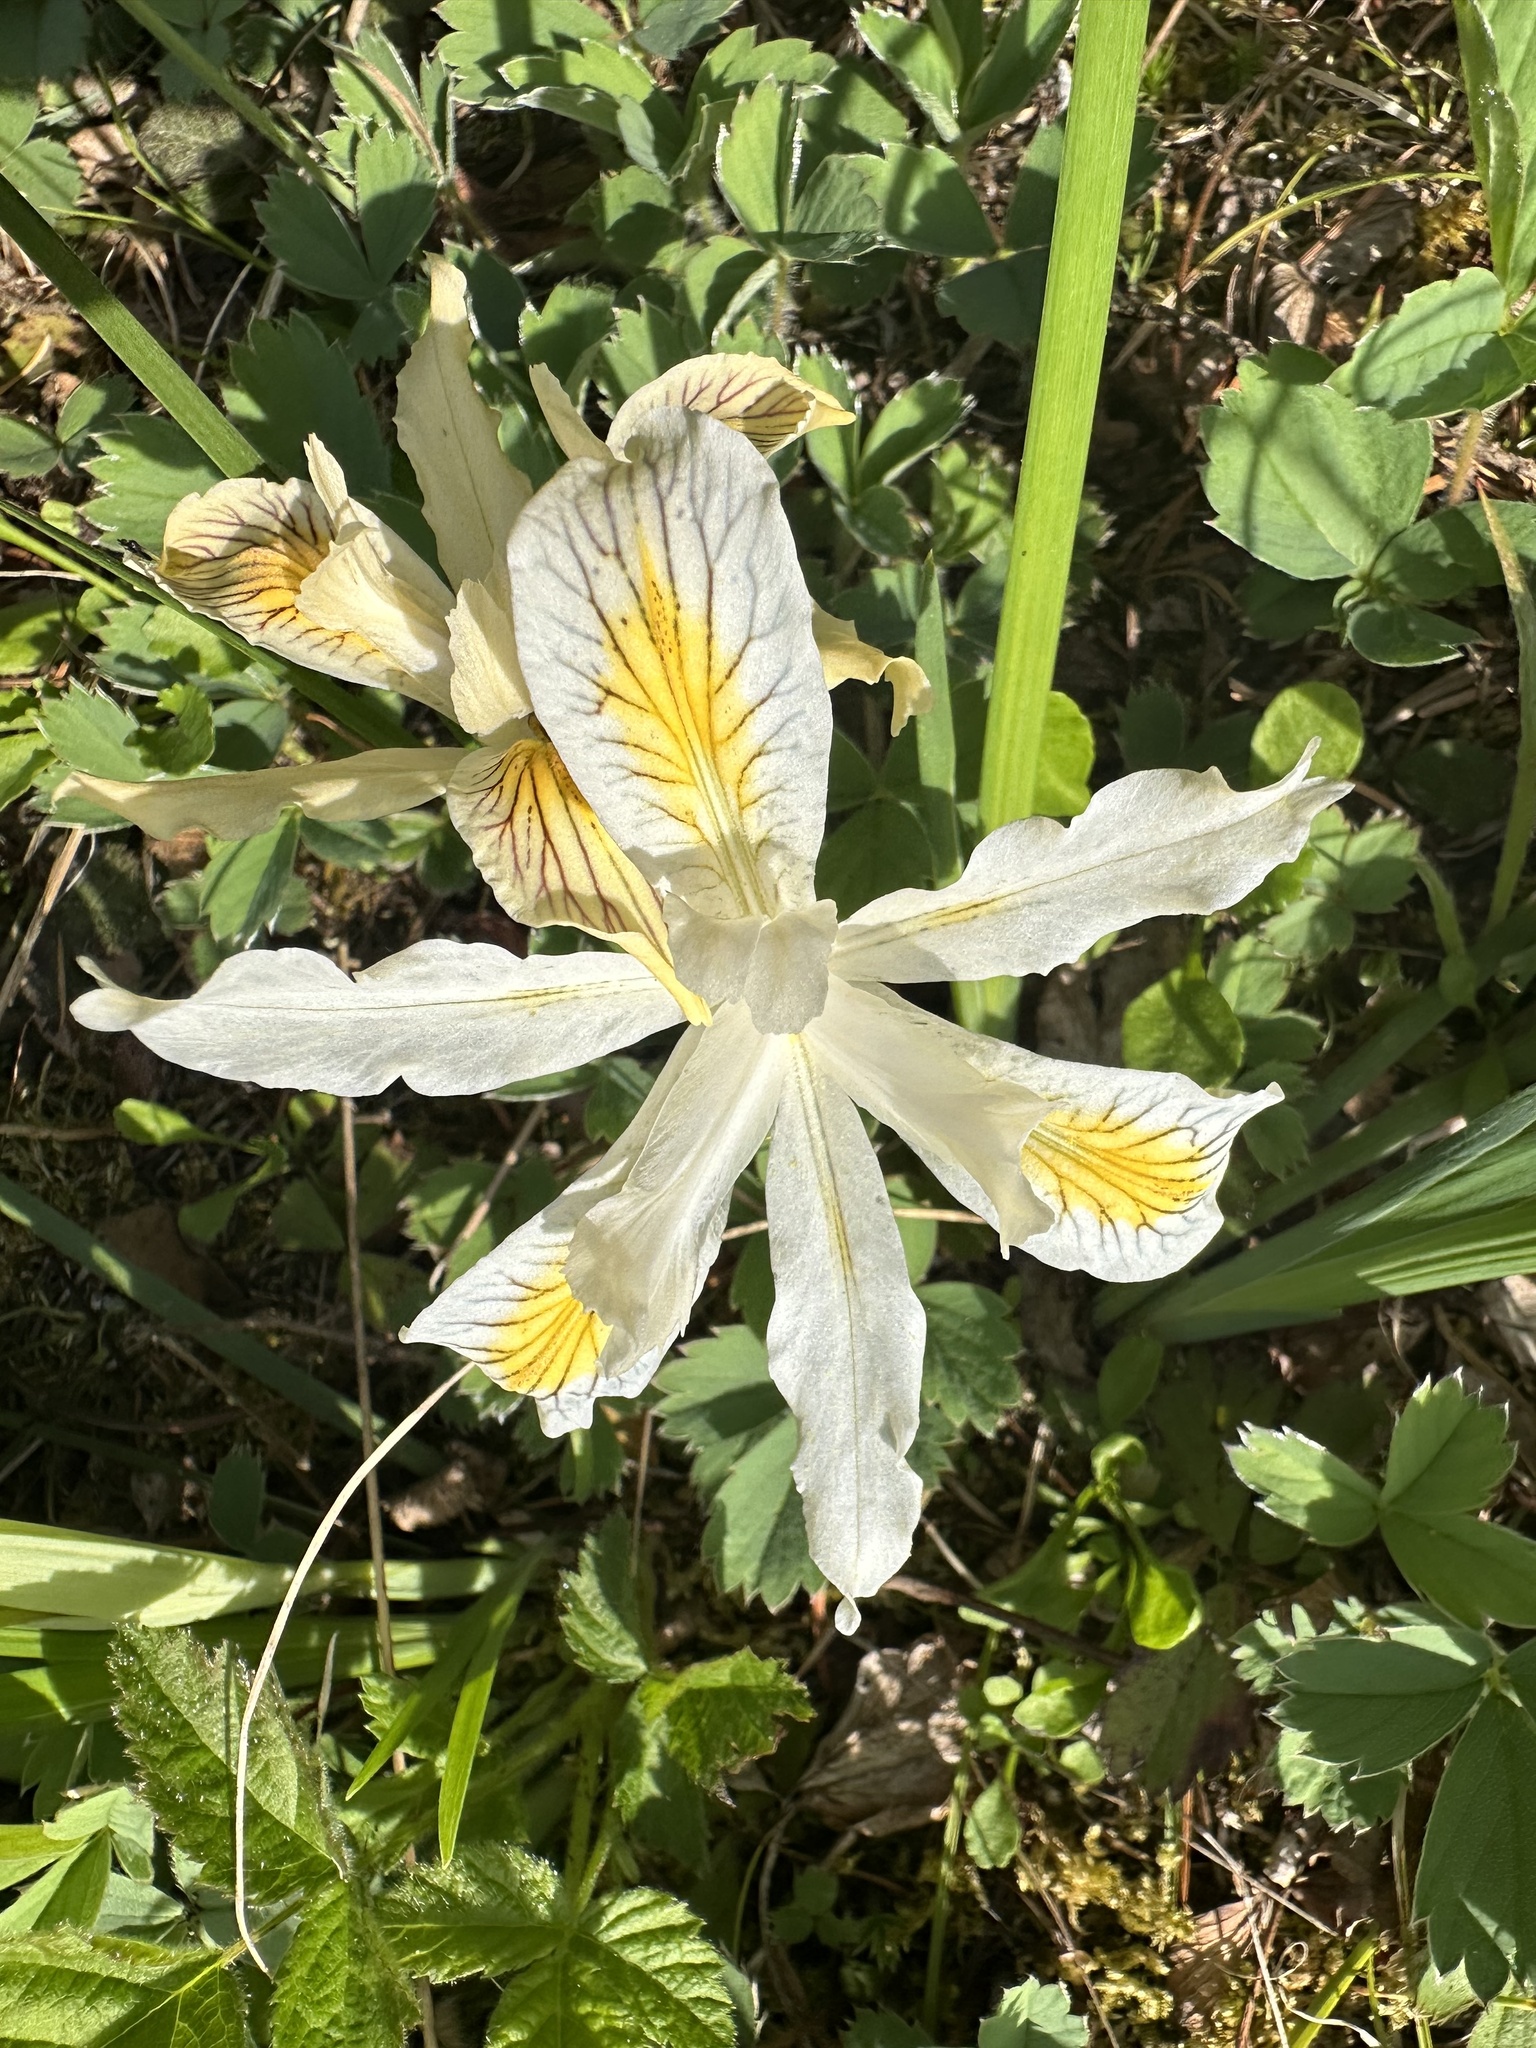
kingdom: Plantae
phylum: Tracheophyta
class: Liliopsida
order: Asparagales
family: Iridaceae
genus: Iris
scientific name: Iris chrysophylla
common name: Yellow-leaf iris
